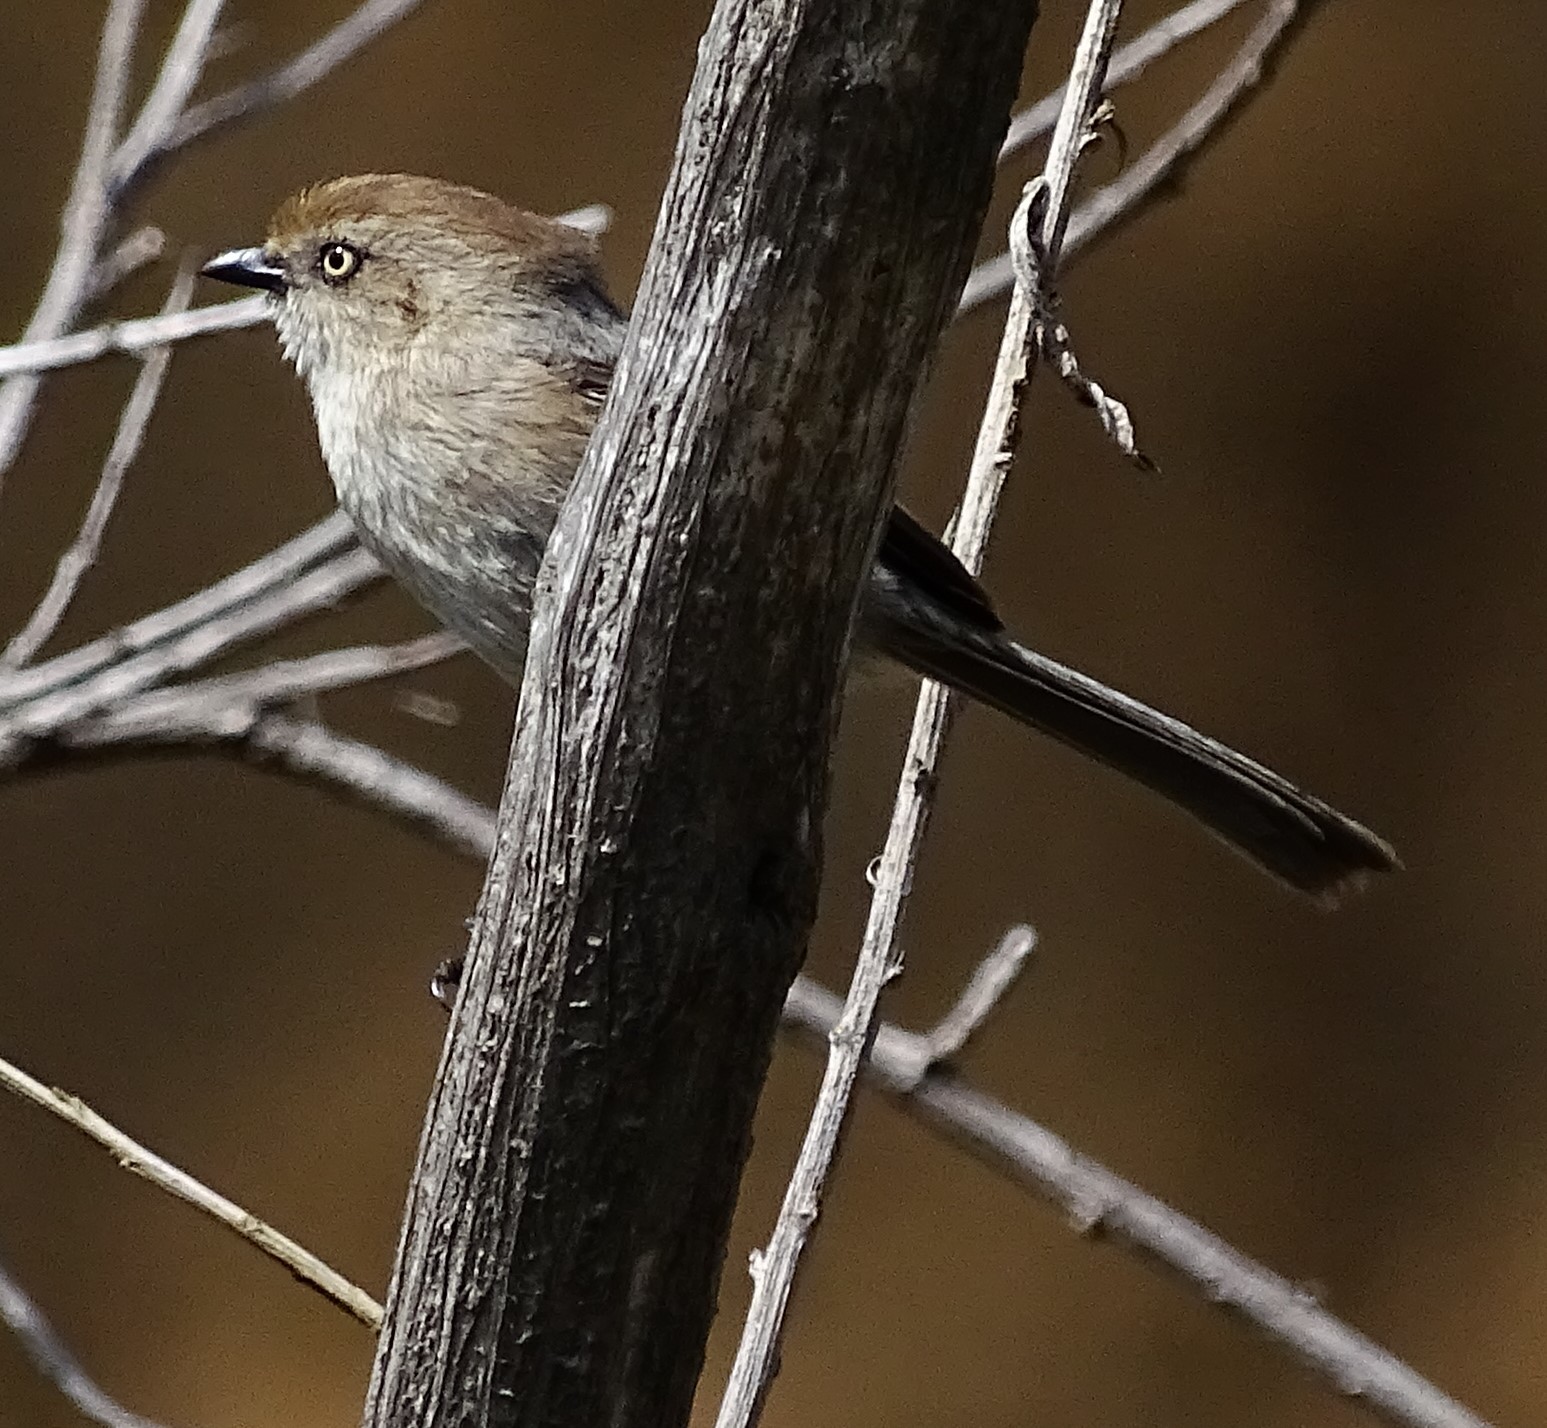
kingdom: Animalia
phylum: Chordata
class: Aves
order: Passeriformes
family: Aegithalidae
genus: Psaltriparus
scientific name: Psaltriparus minimus
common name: American bushtit
